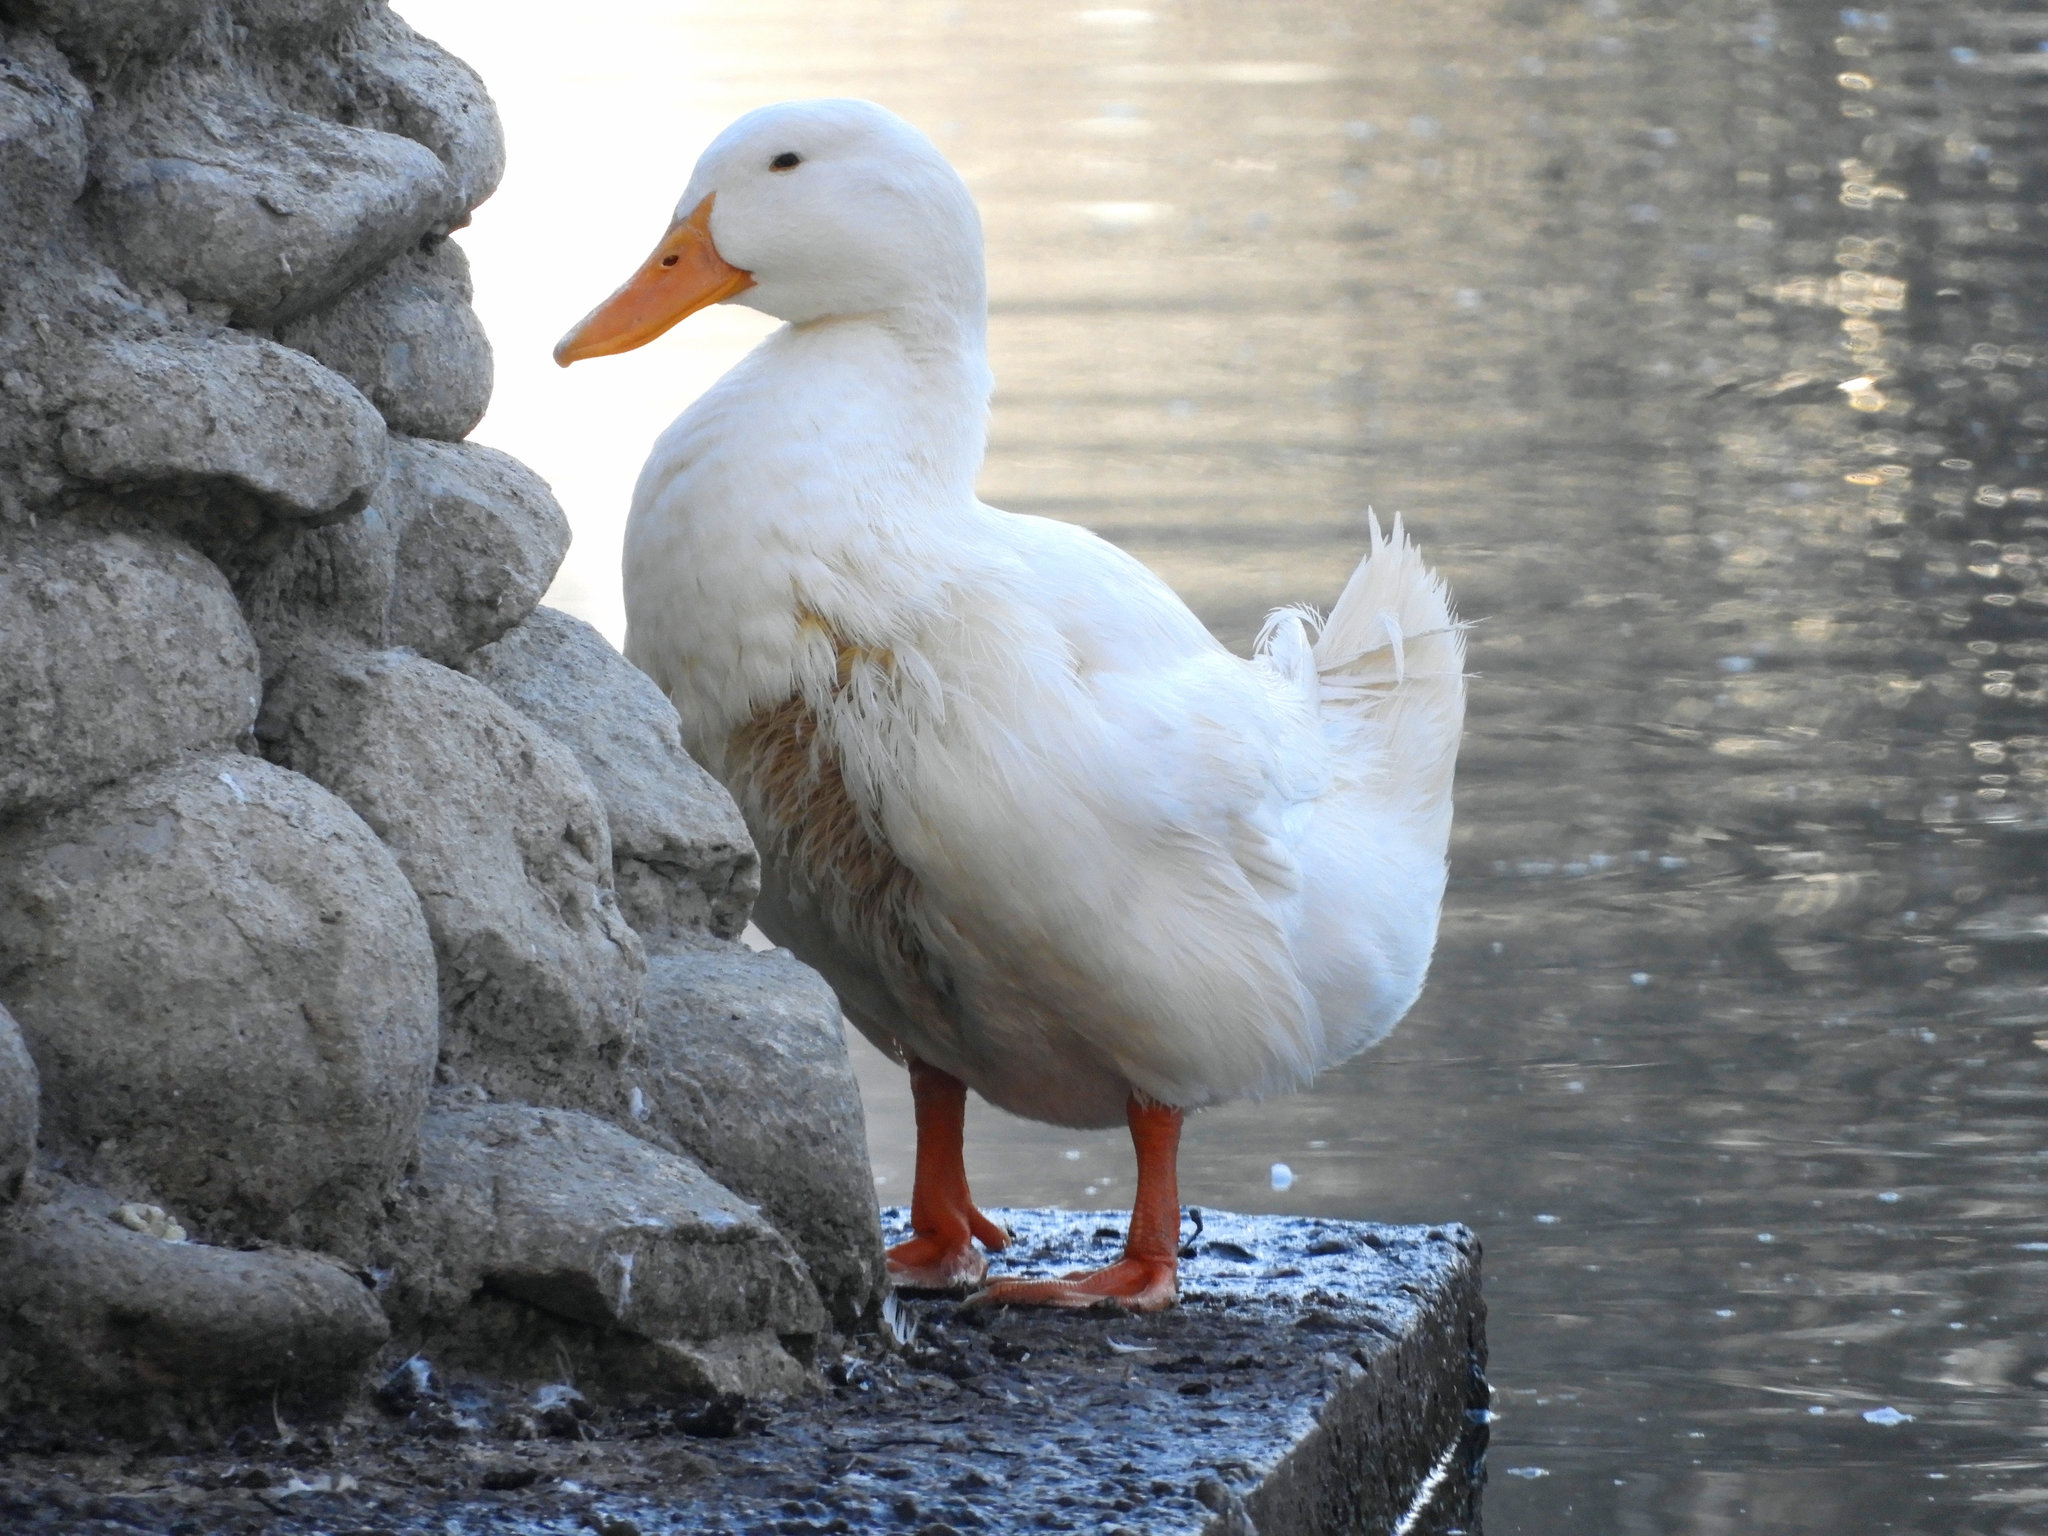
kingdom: Animalia
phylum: Chordata
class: Aves
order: Anseriformes
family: Anatidae
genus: Anas
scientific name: Anas platyrhynchos
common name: Mallard
